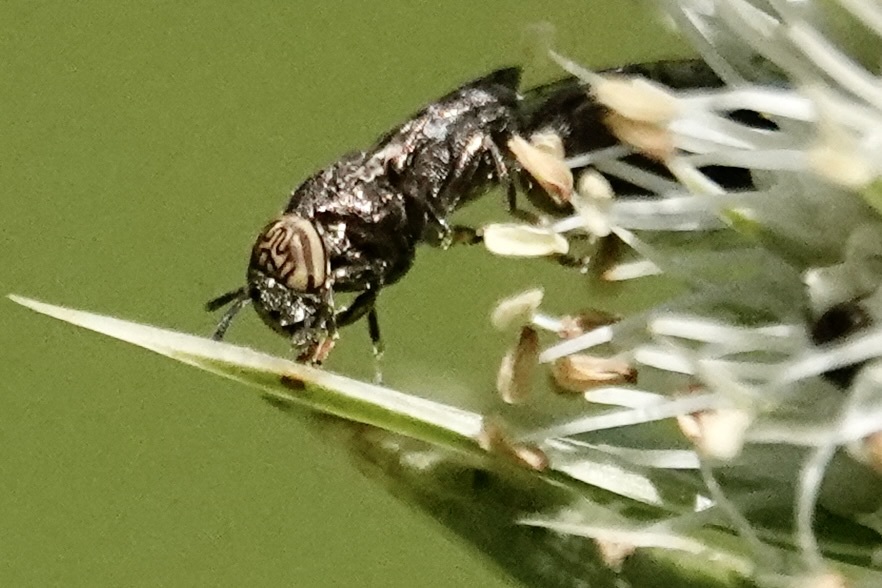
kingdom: Animalia
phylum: Arthropoda
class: Insecta
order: Diptera
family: Syrphidae
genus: Orthonevra
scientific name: Orthonevra nitida
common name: Wavy mucksucker
